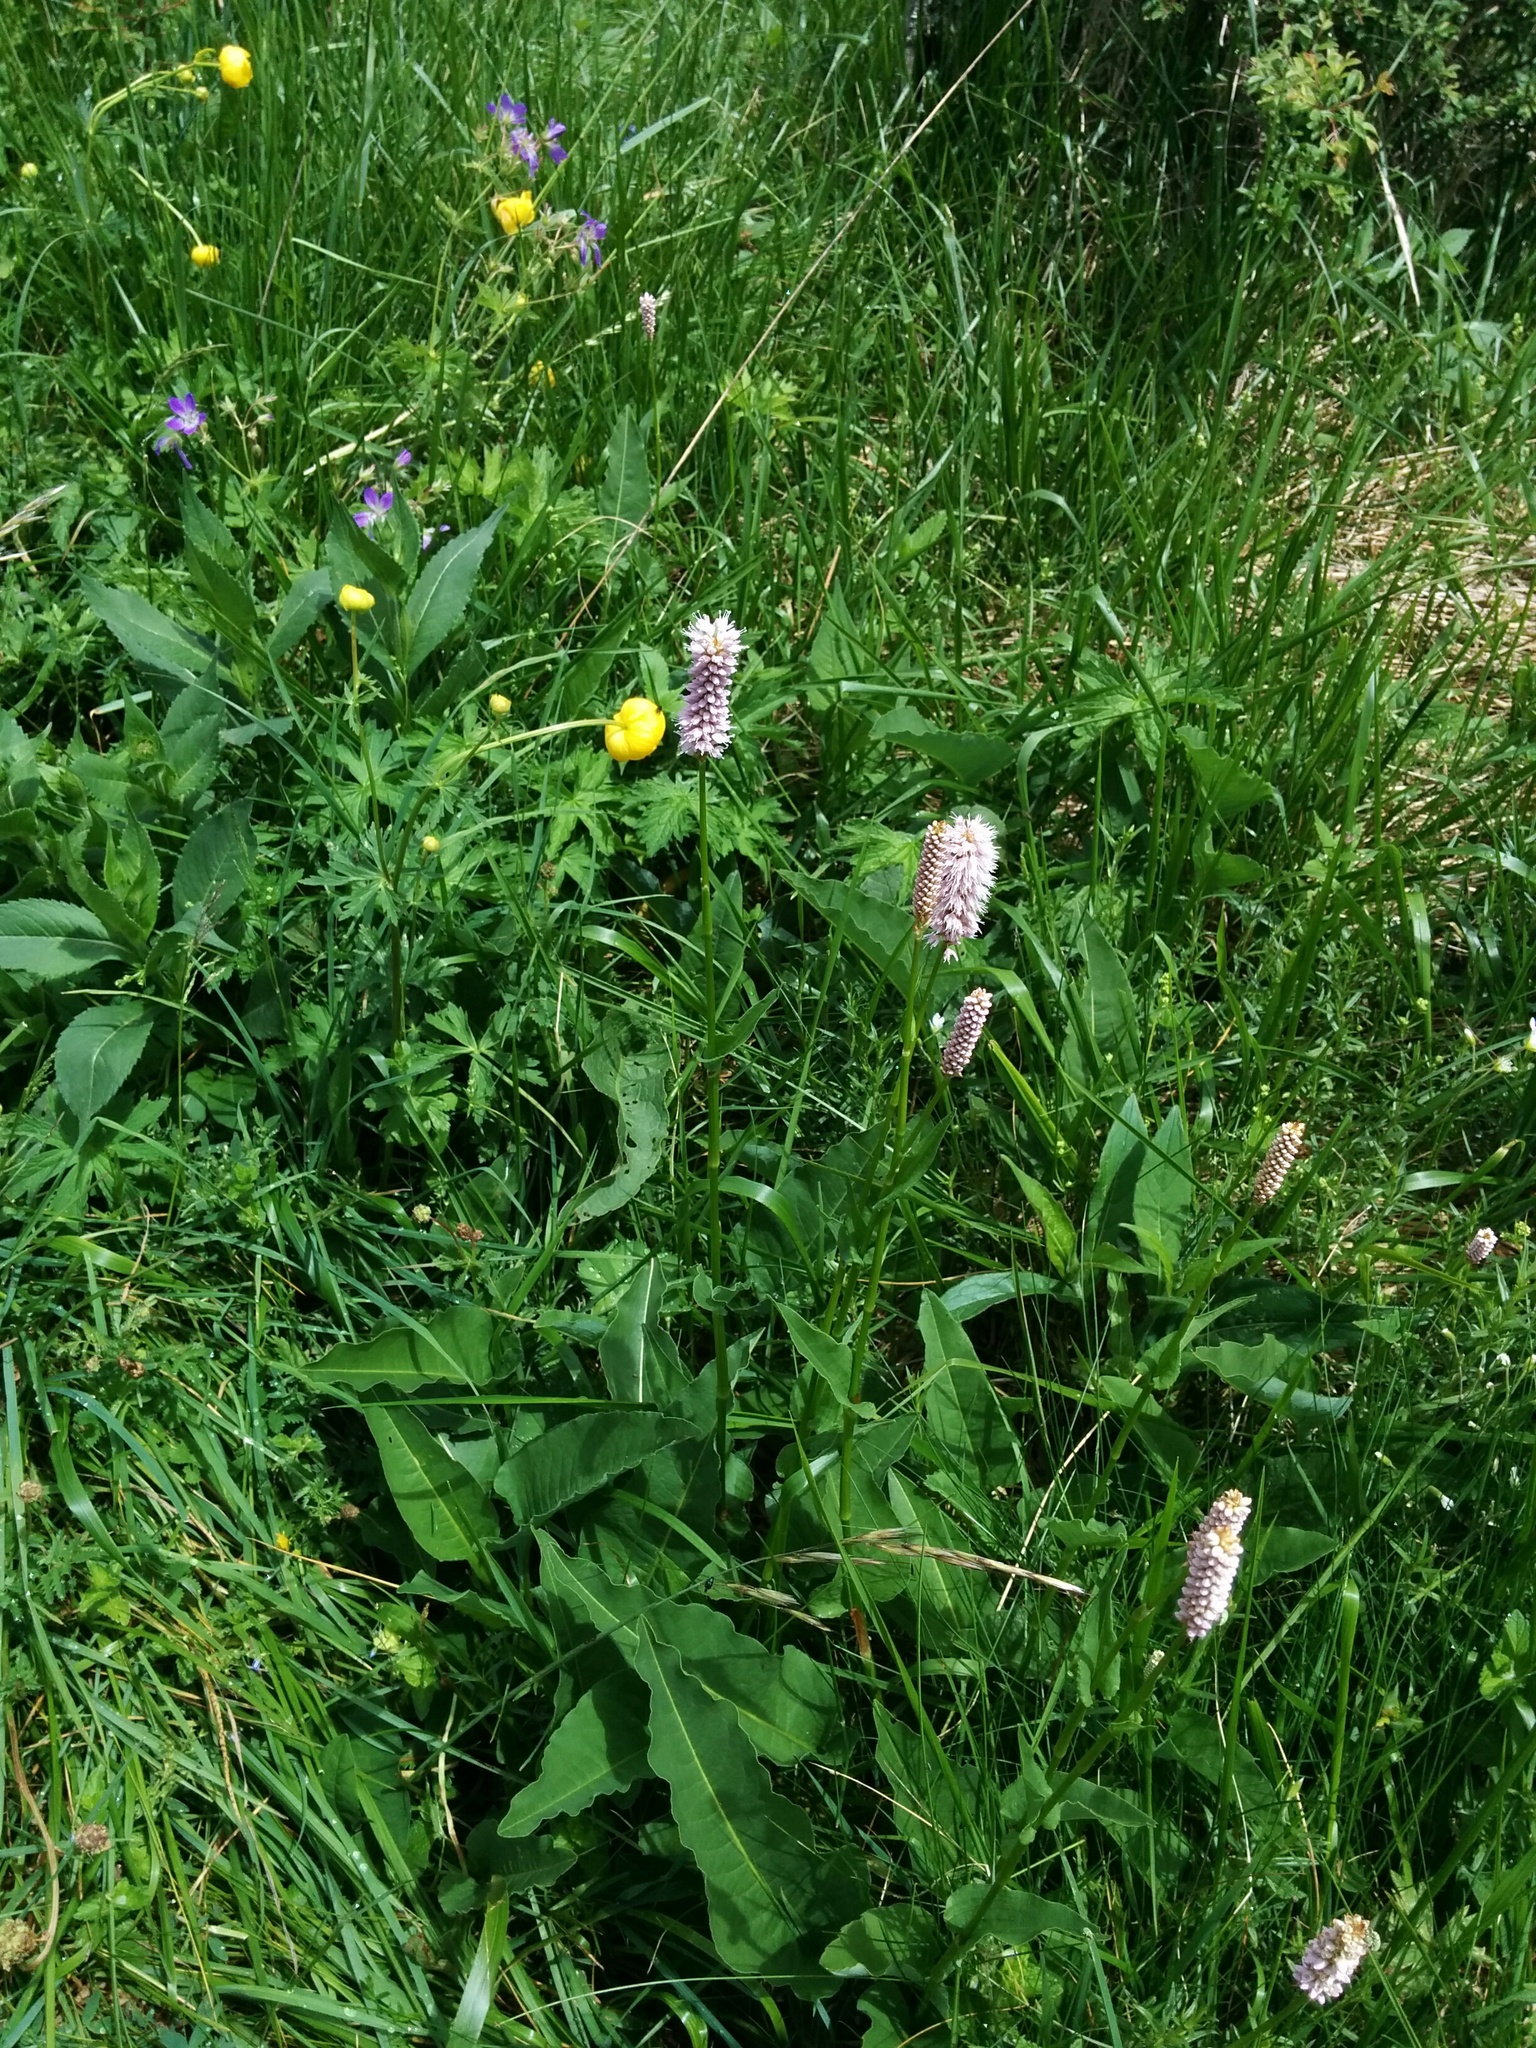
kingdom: Plantae
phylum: Tracheophyta
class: Magnoliopsida
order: Caryophyllales
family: Polygonaceae
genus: Bistorta
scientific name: Bistorta officinalis
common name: Common bistort
